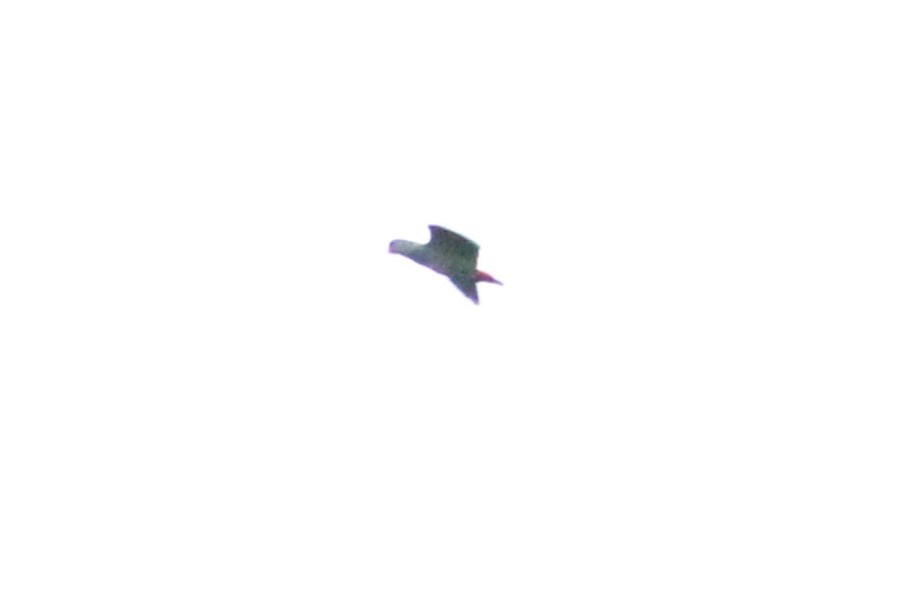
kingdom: Animalia
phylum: Chordata
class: Aves
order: Psittaciformes
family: Psittacidae
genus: Pionus
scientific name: Pionus sordidus
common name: Red-billed parrot
